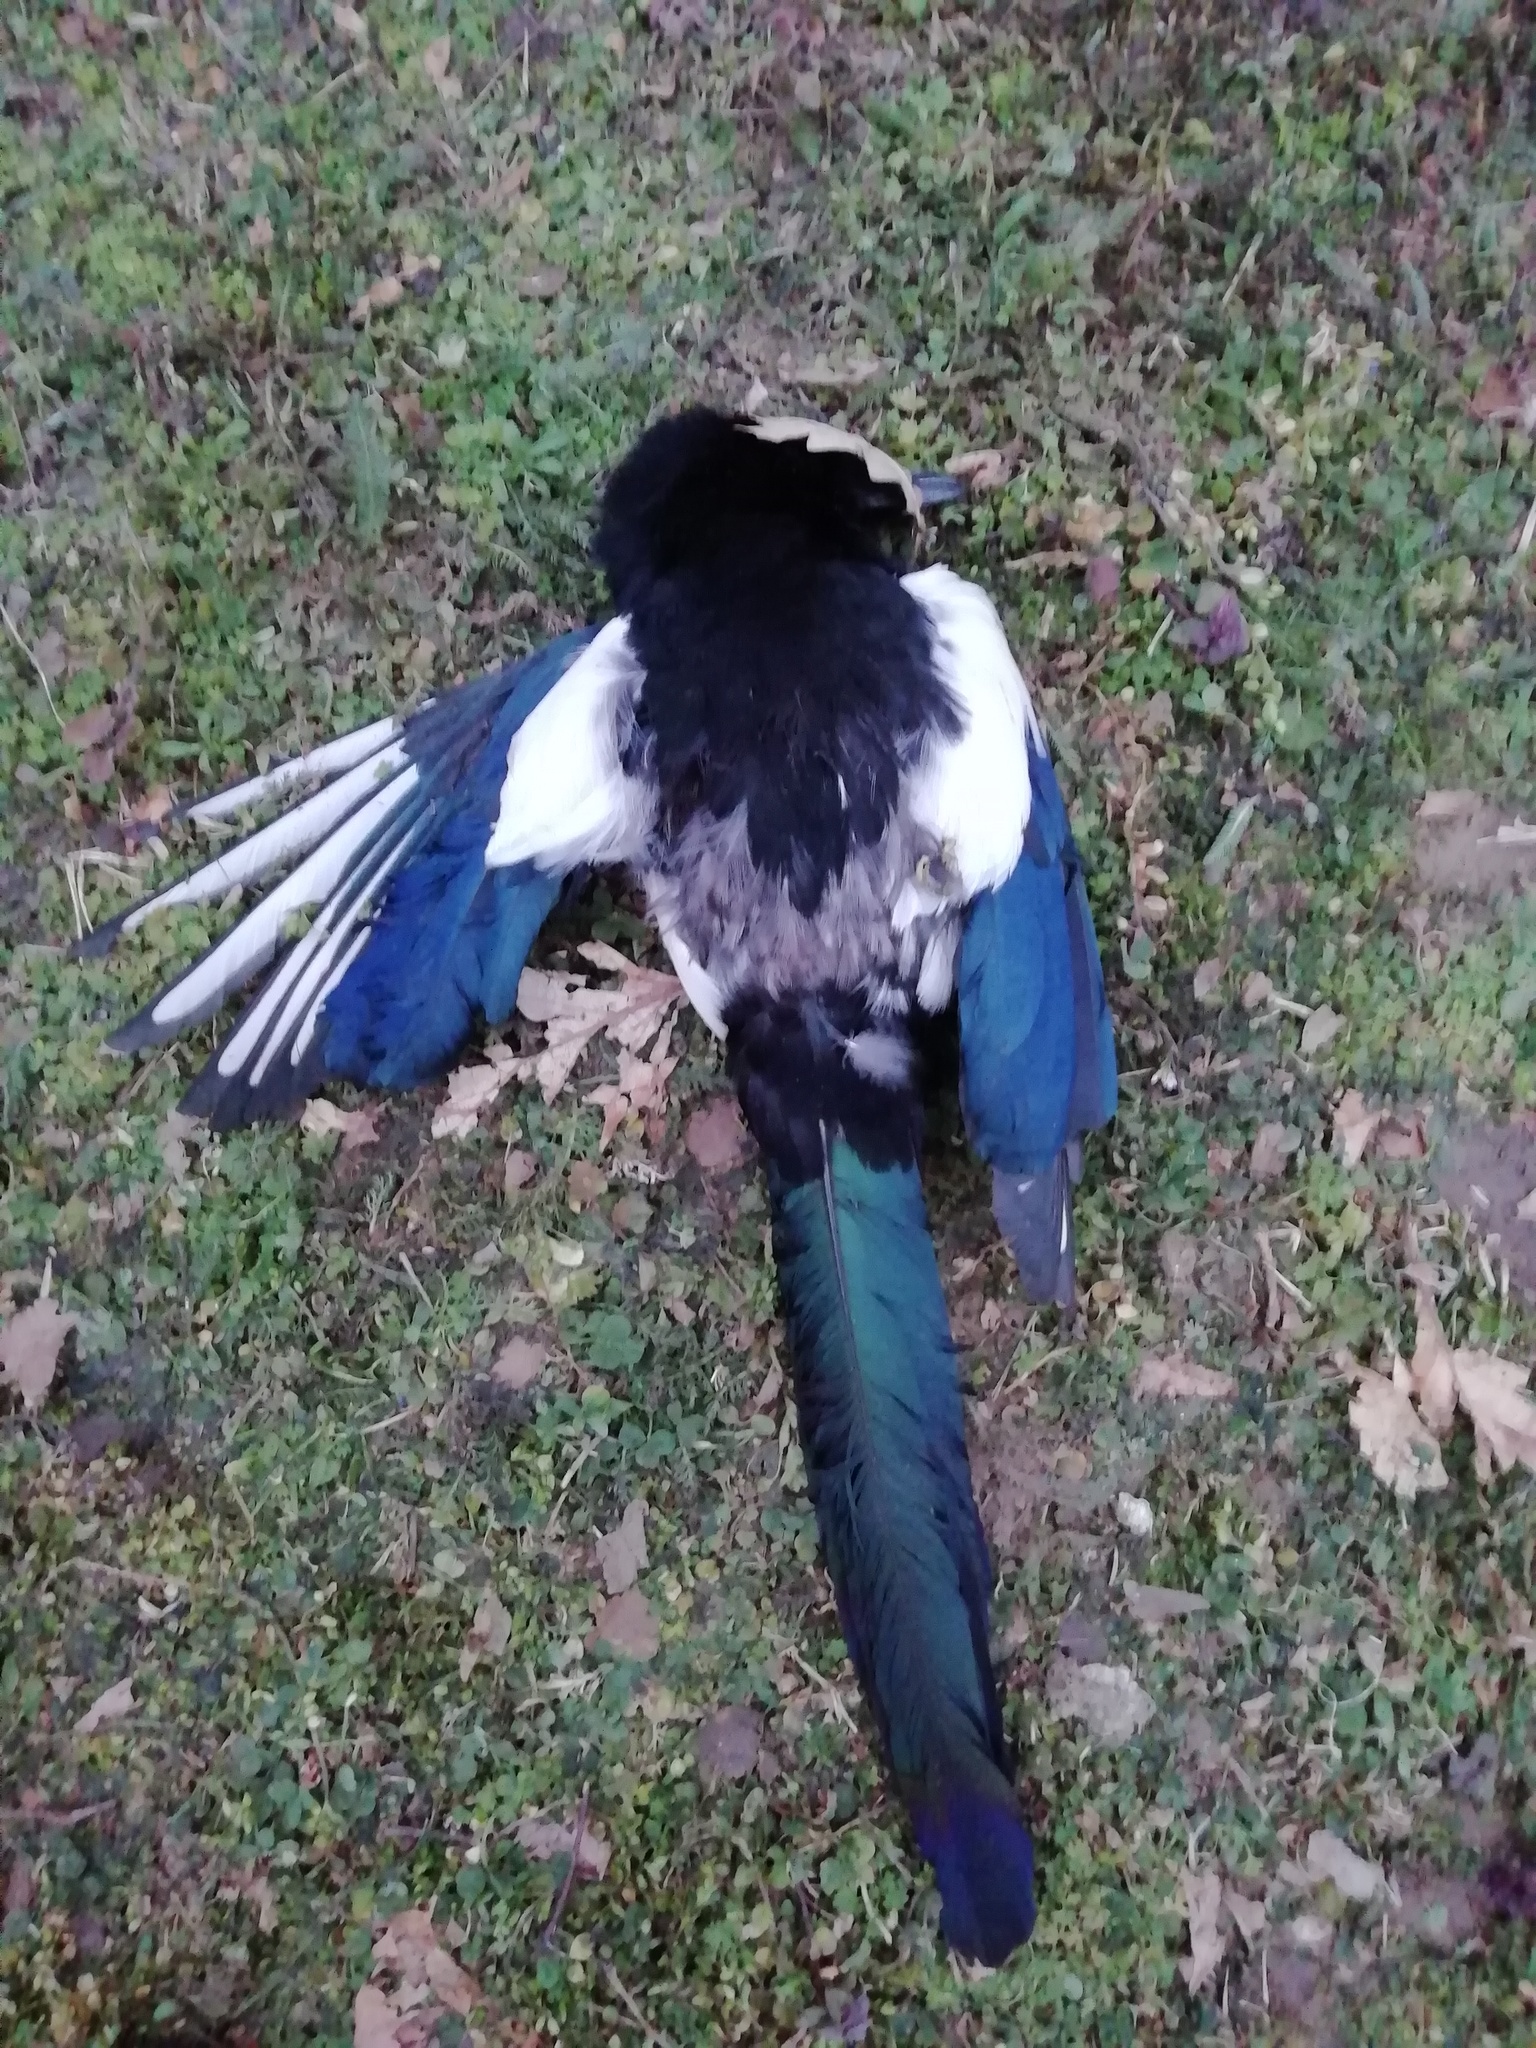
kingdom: Animalia
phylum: Chordata
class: Aves
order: Passeriformes
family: Corvidae
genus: Pica
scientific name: Pica pica
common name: Eurasian magpie
